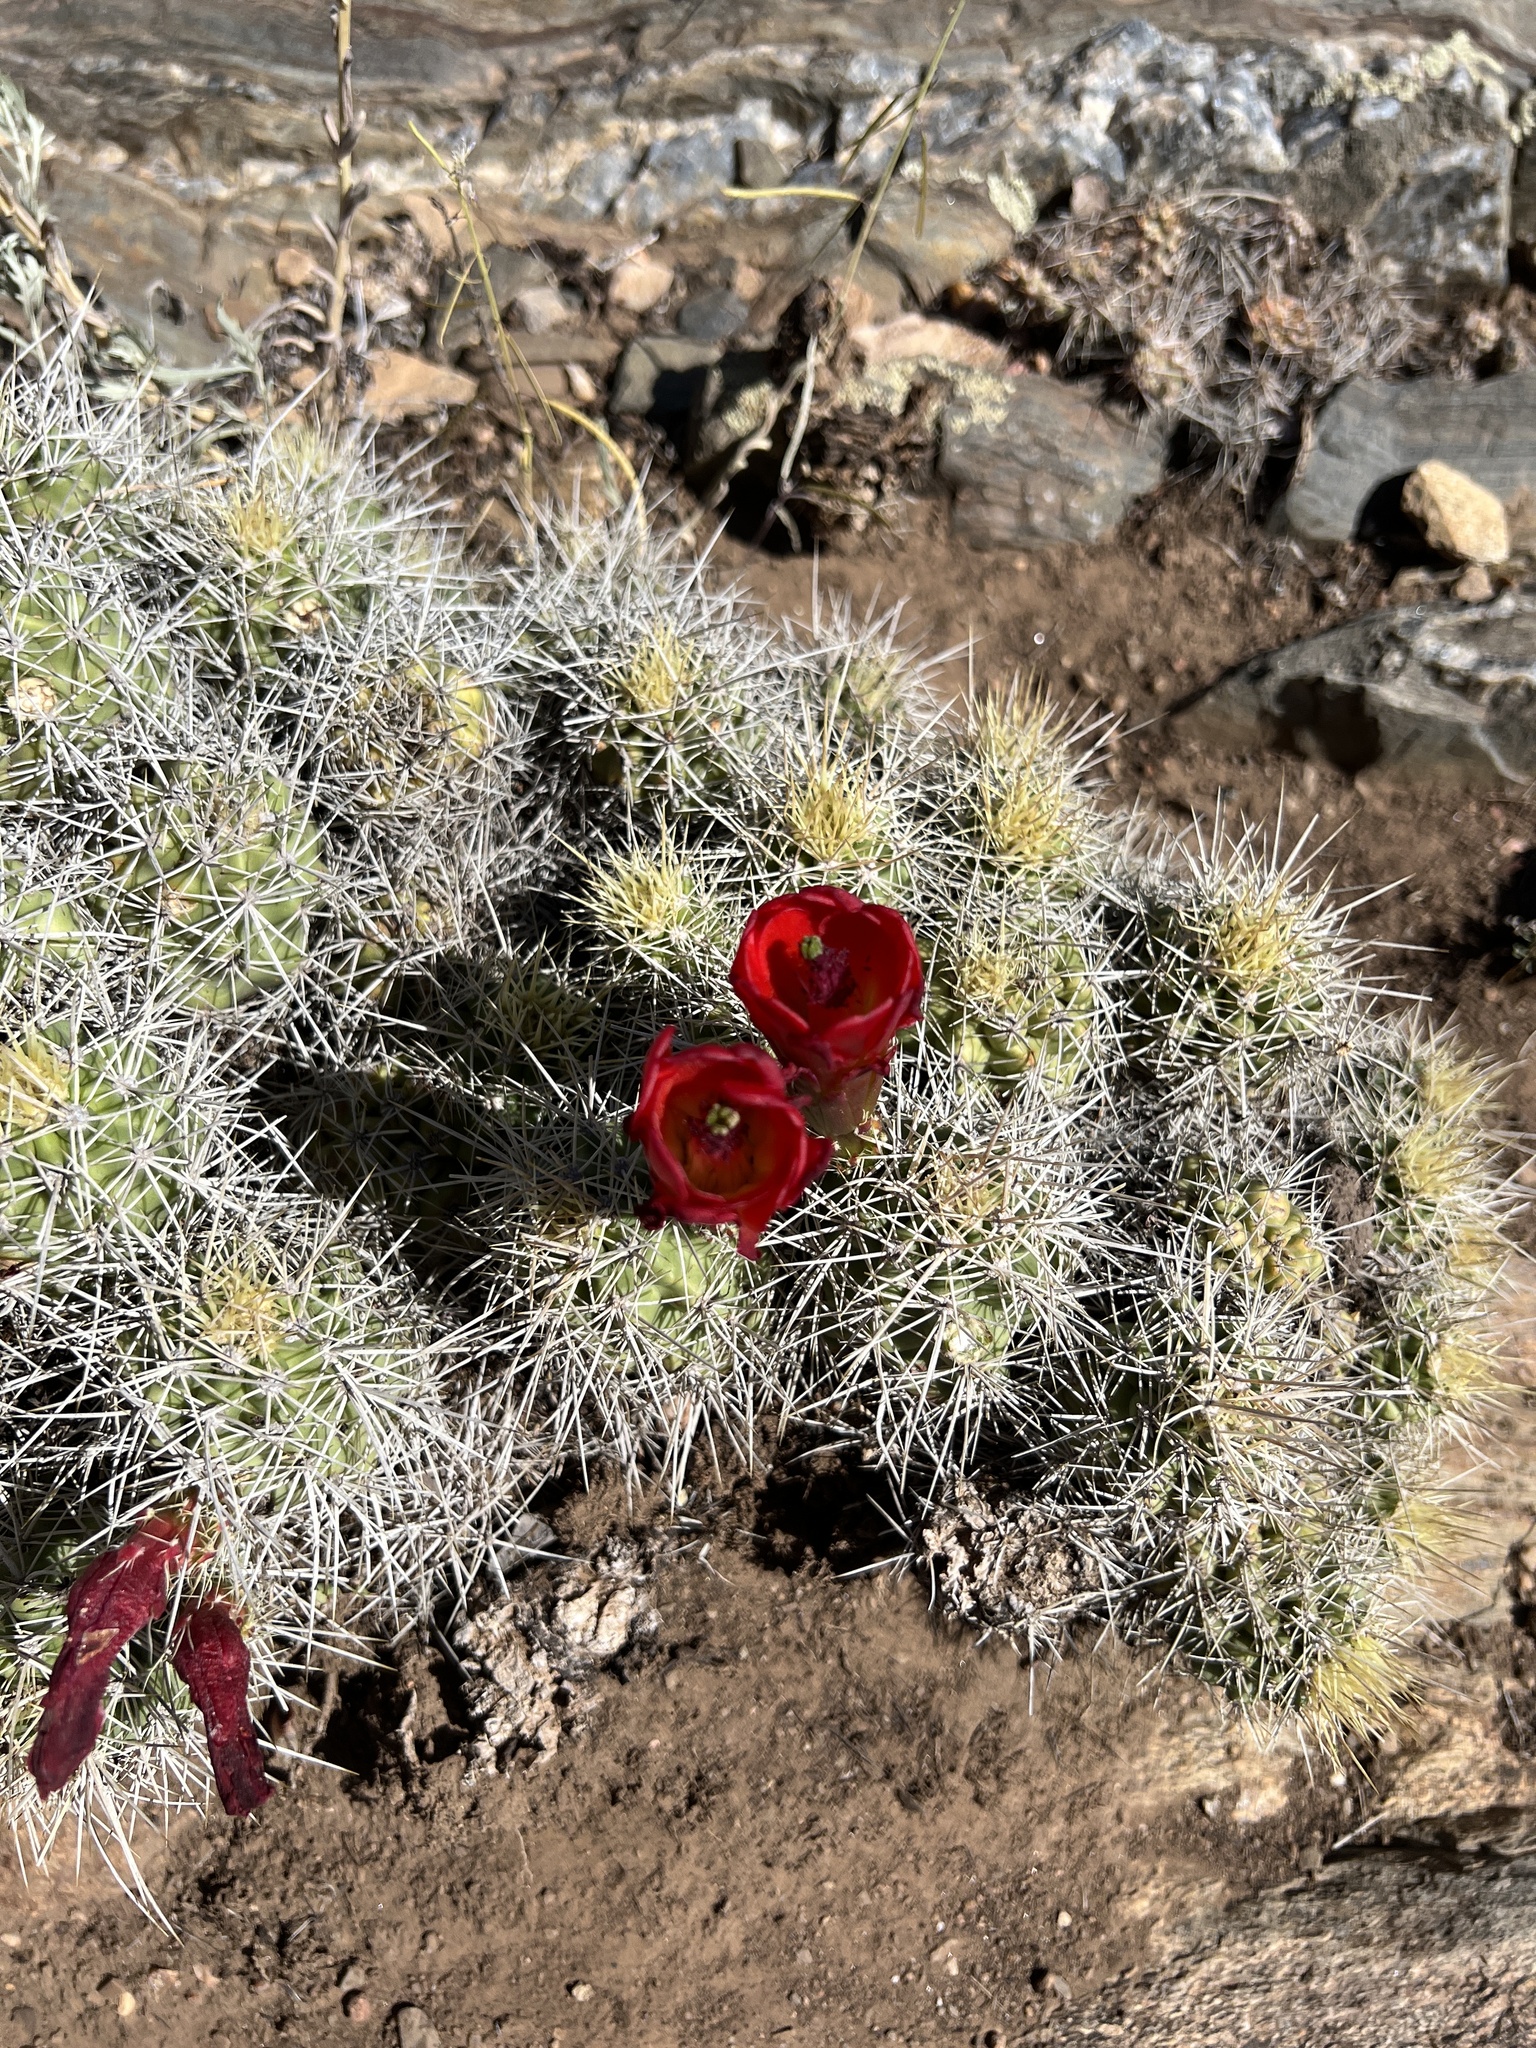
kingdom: Plantae
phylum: Tracheophyta
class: Magnoliopsida
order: Caryophyllales
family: Cactaceae
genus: Echinocereus
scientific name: Echinocereus triglochidiatus
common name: Claretcup hedgehog
